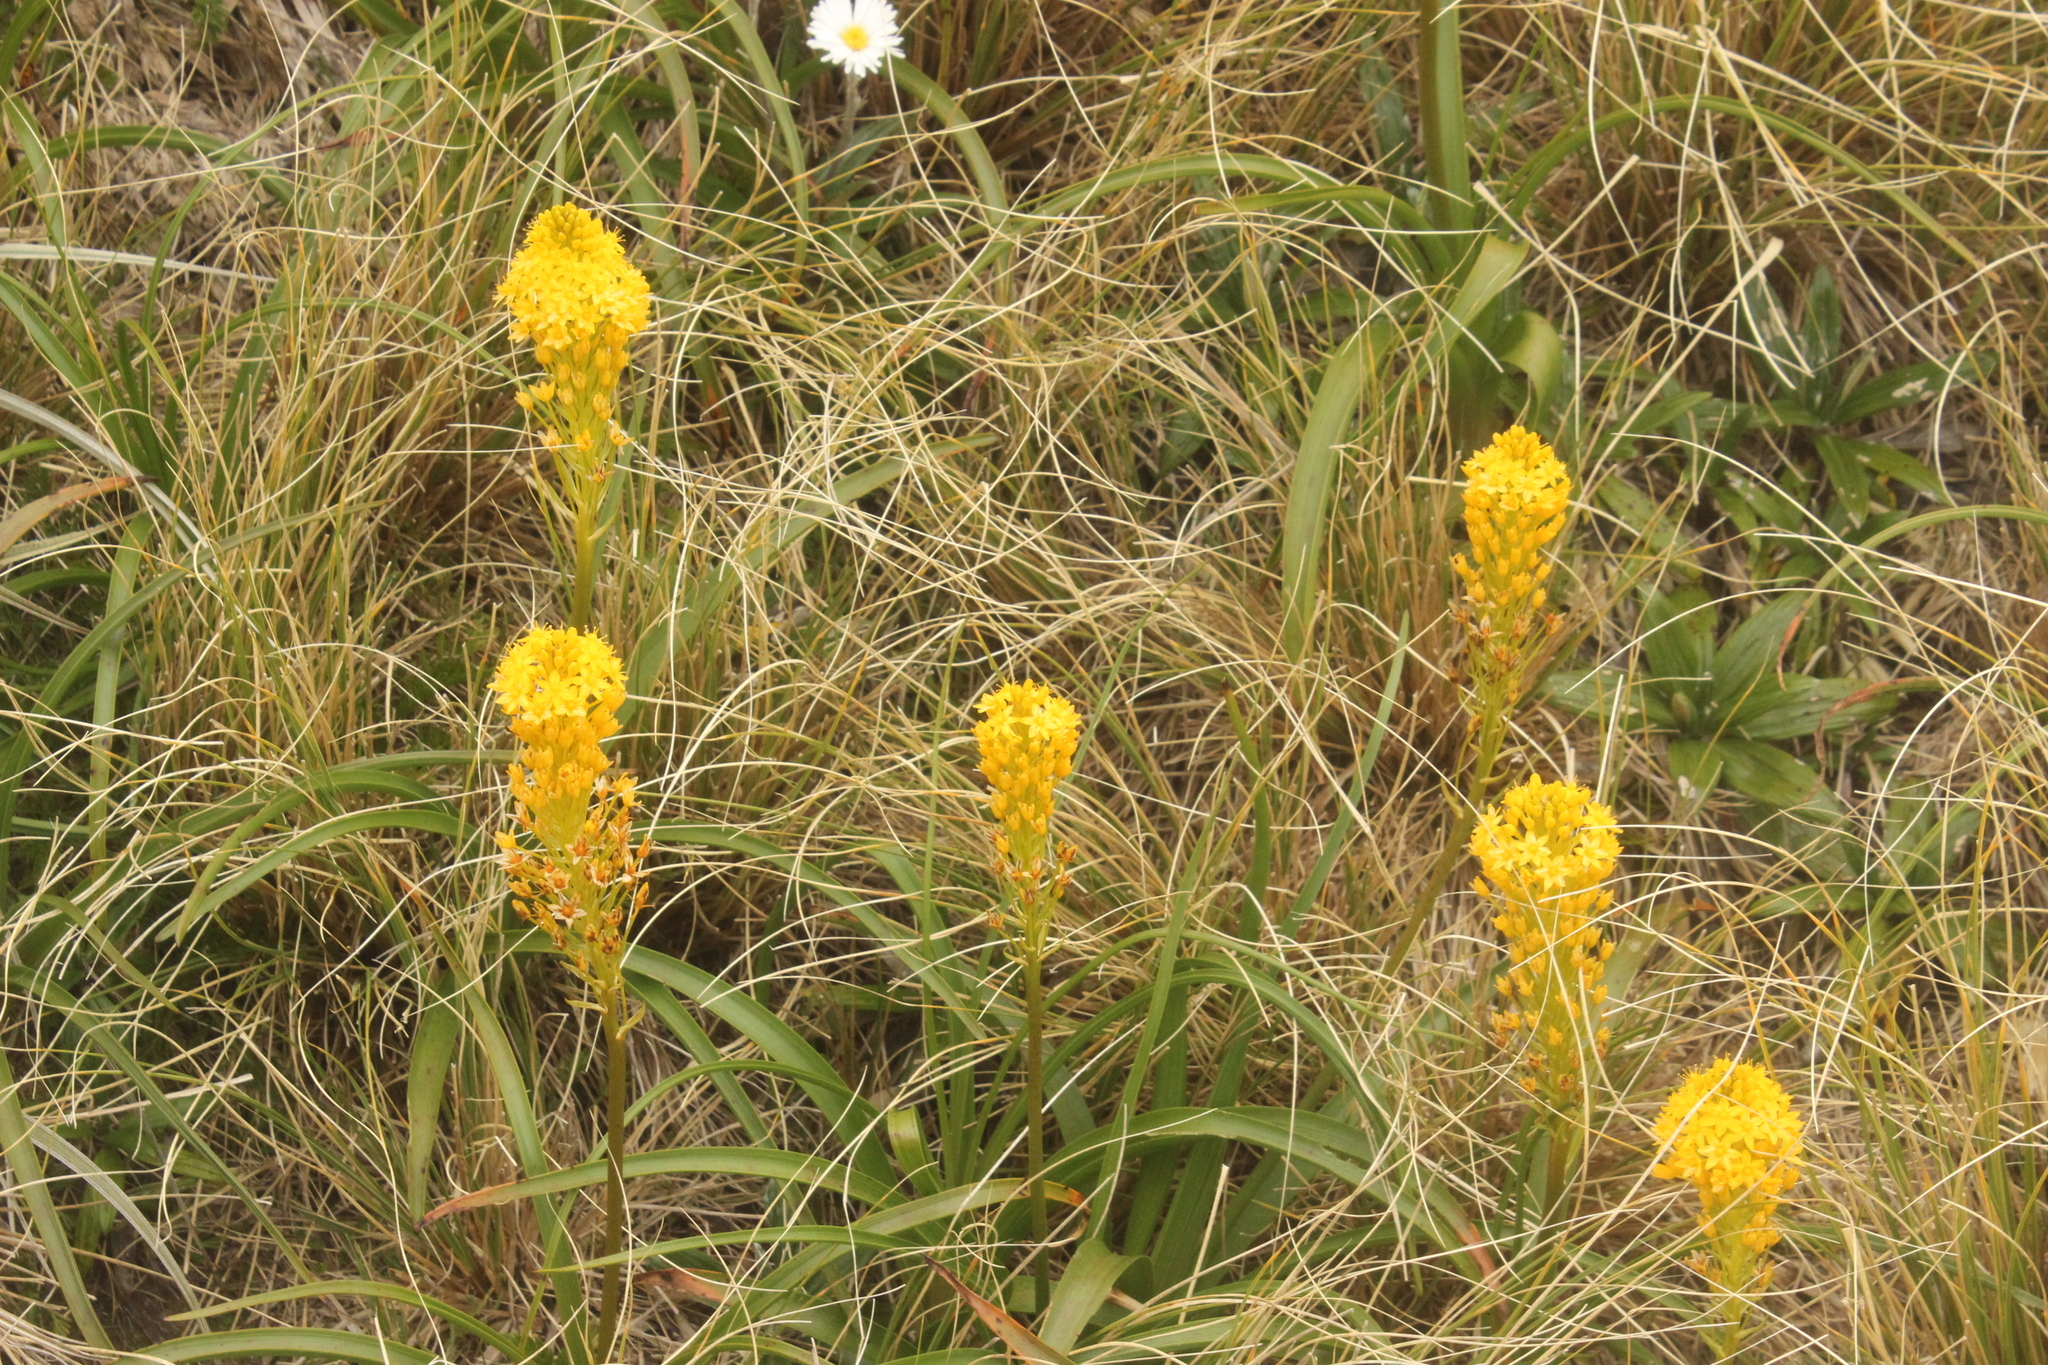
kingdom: Plantae
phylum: Tracheophyta
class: Liliopsida
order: Asparagales
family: Asphodelaceae
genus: Bulbinella
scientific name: Bulbinella gibbsii
